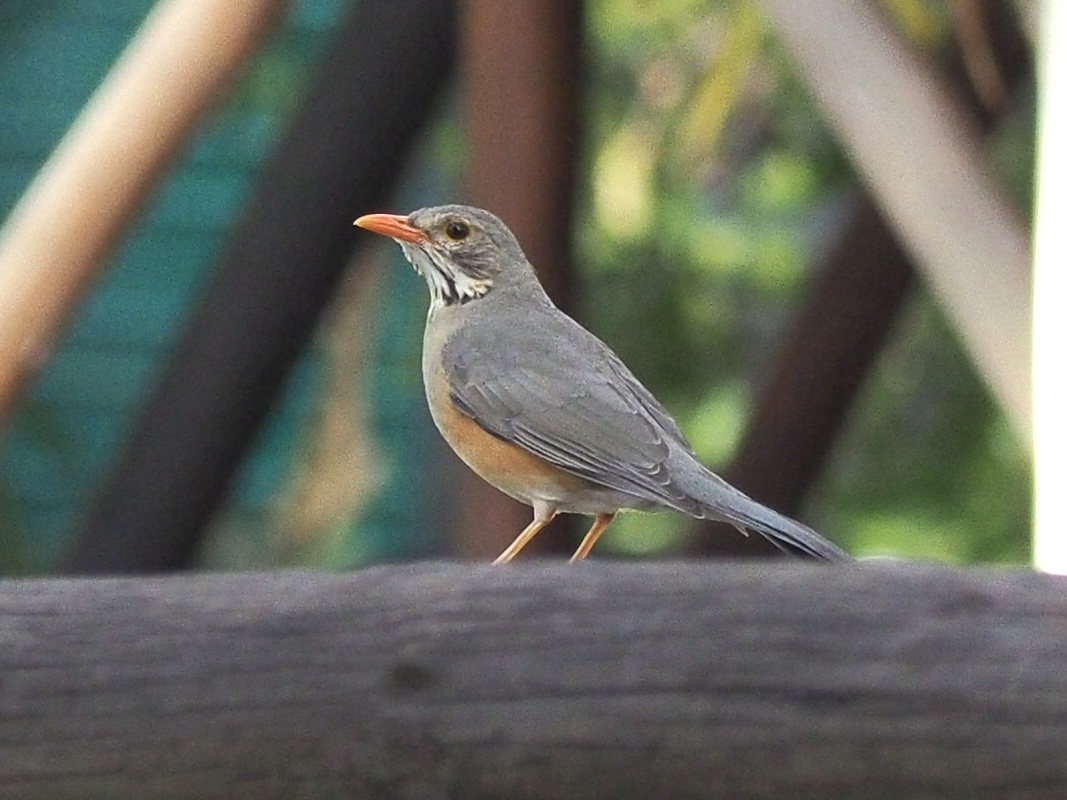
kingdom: Animalia
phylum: Chordata
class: Aves
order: Passeriformes
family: Turdidae
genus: Turdus
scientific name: Turdus libonyana
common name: Kurrichane thrush
